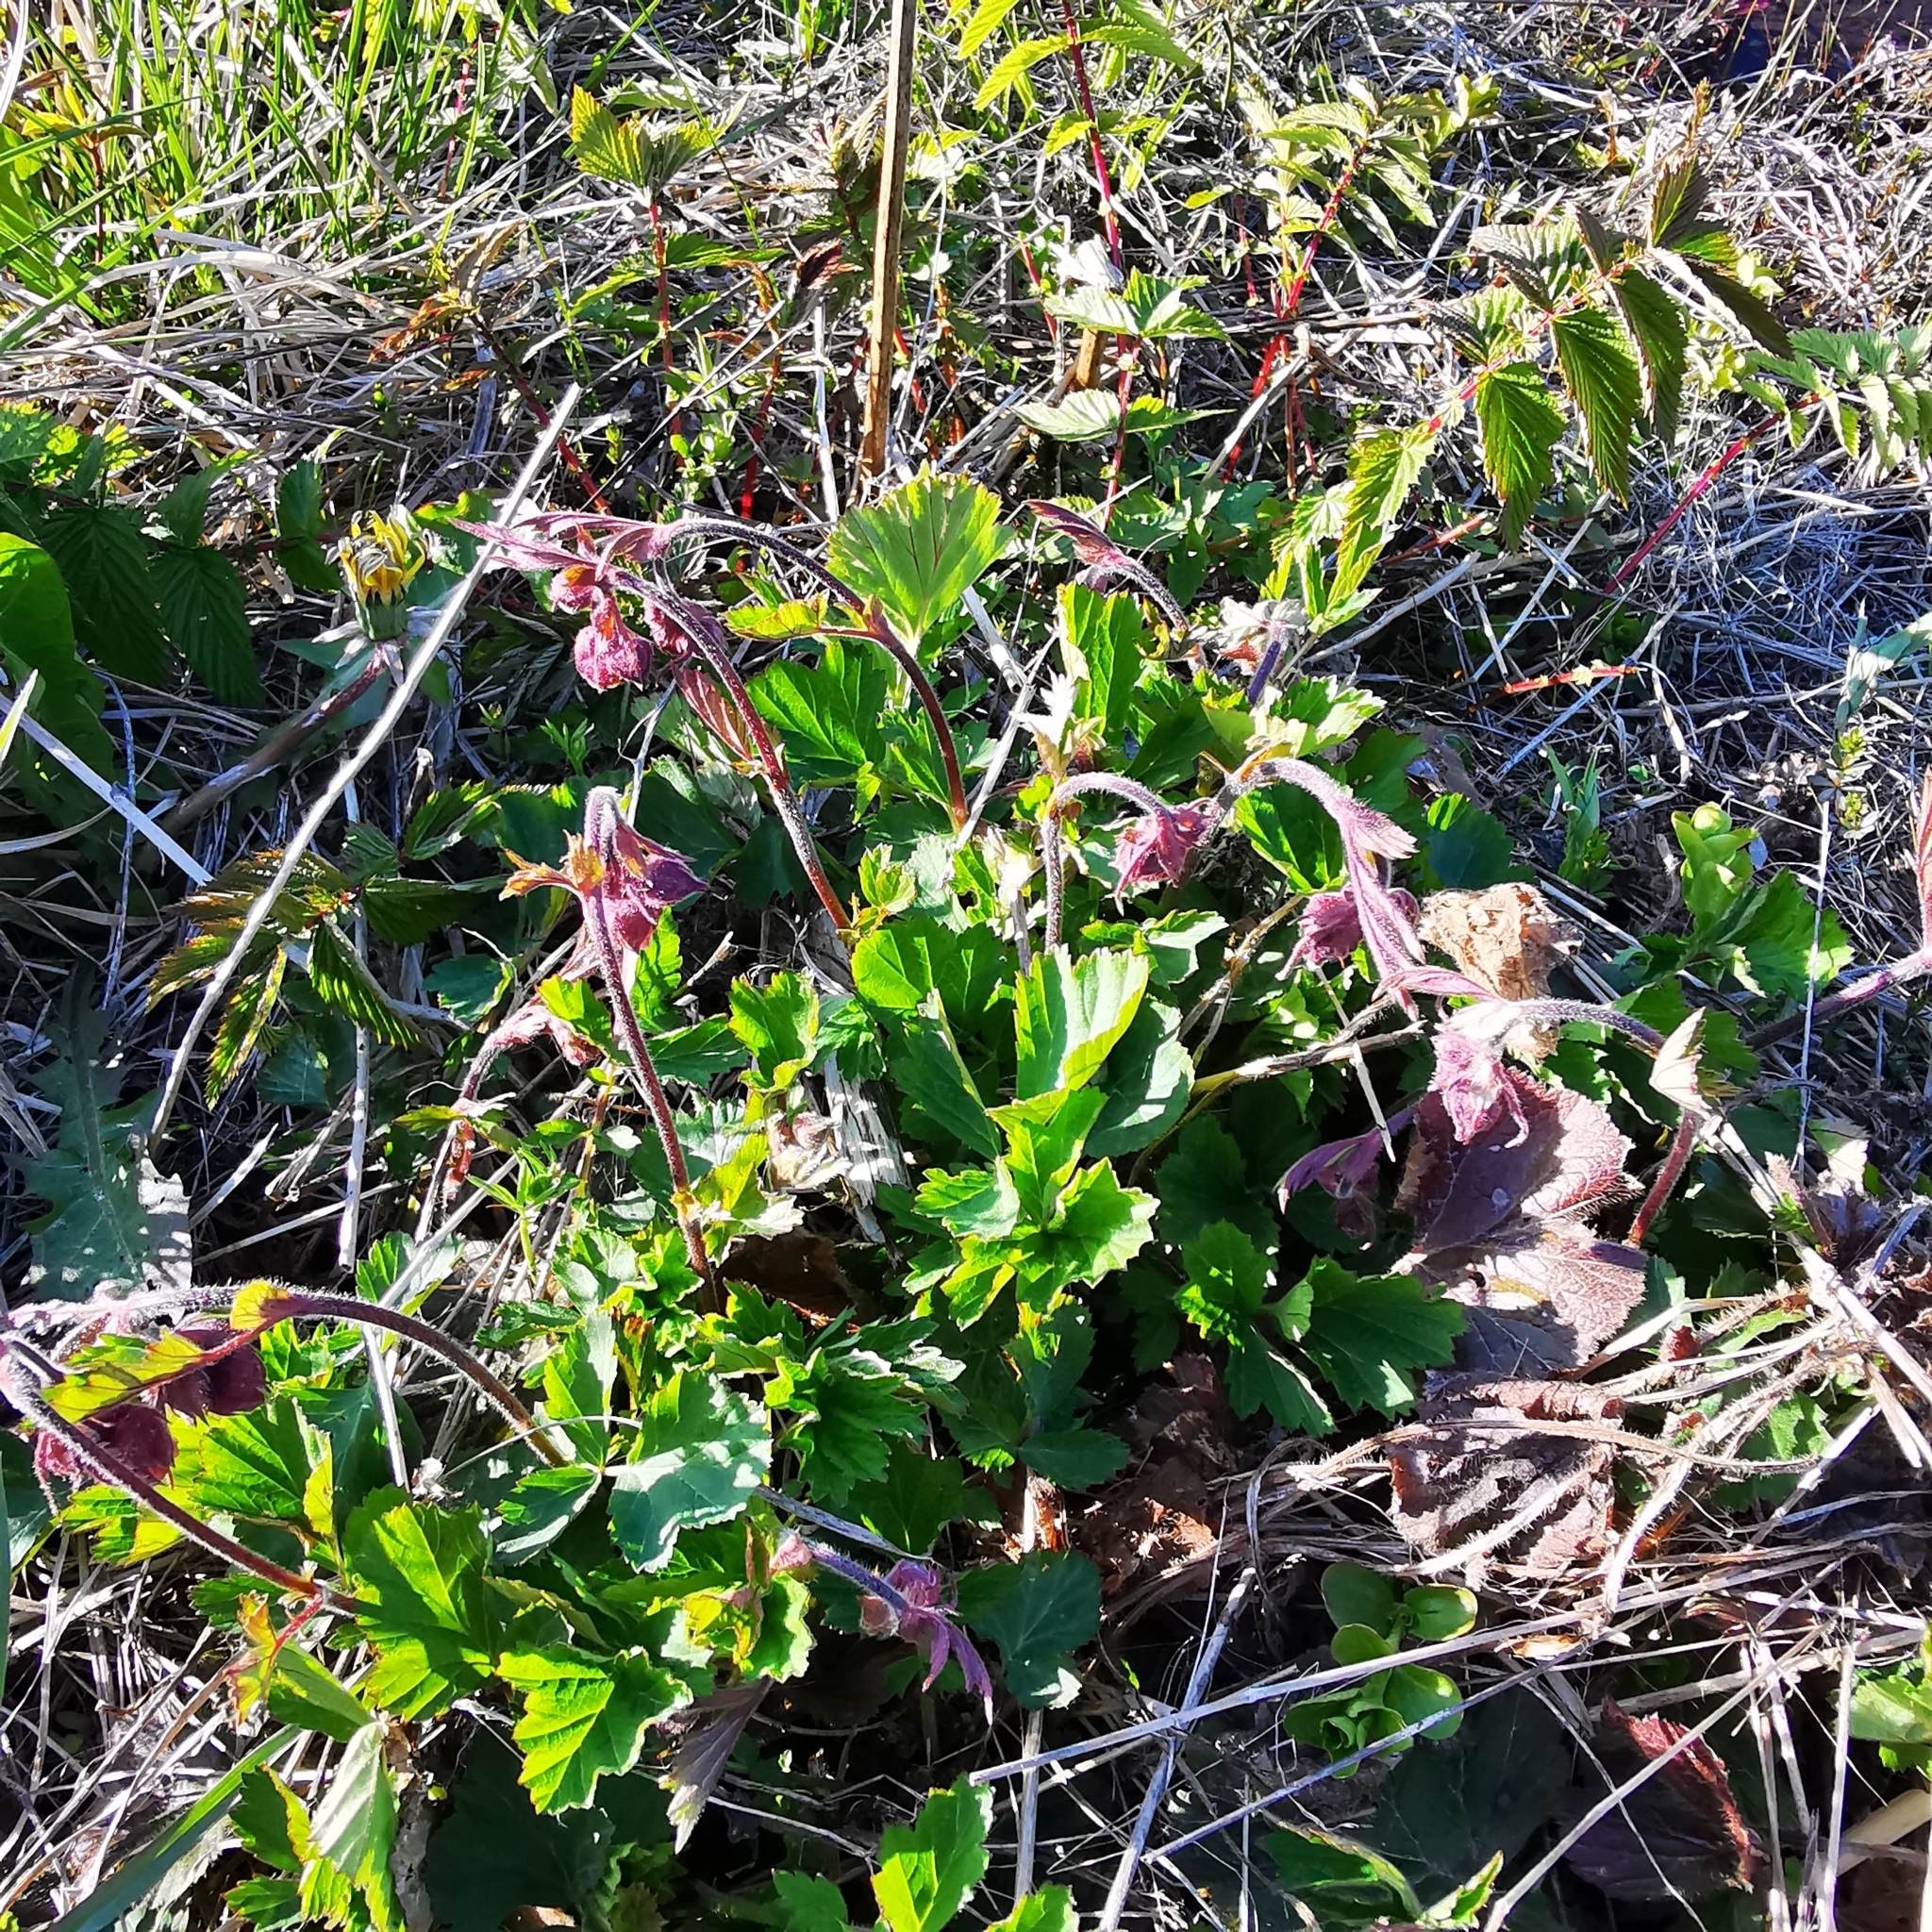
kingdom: Plantae
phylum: Tracheophyta
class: Magnoliopsida
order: Rosales
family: Rosaceae
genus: Geum
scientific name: Geum rivale
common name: Water avens
